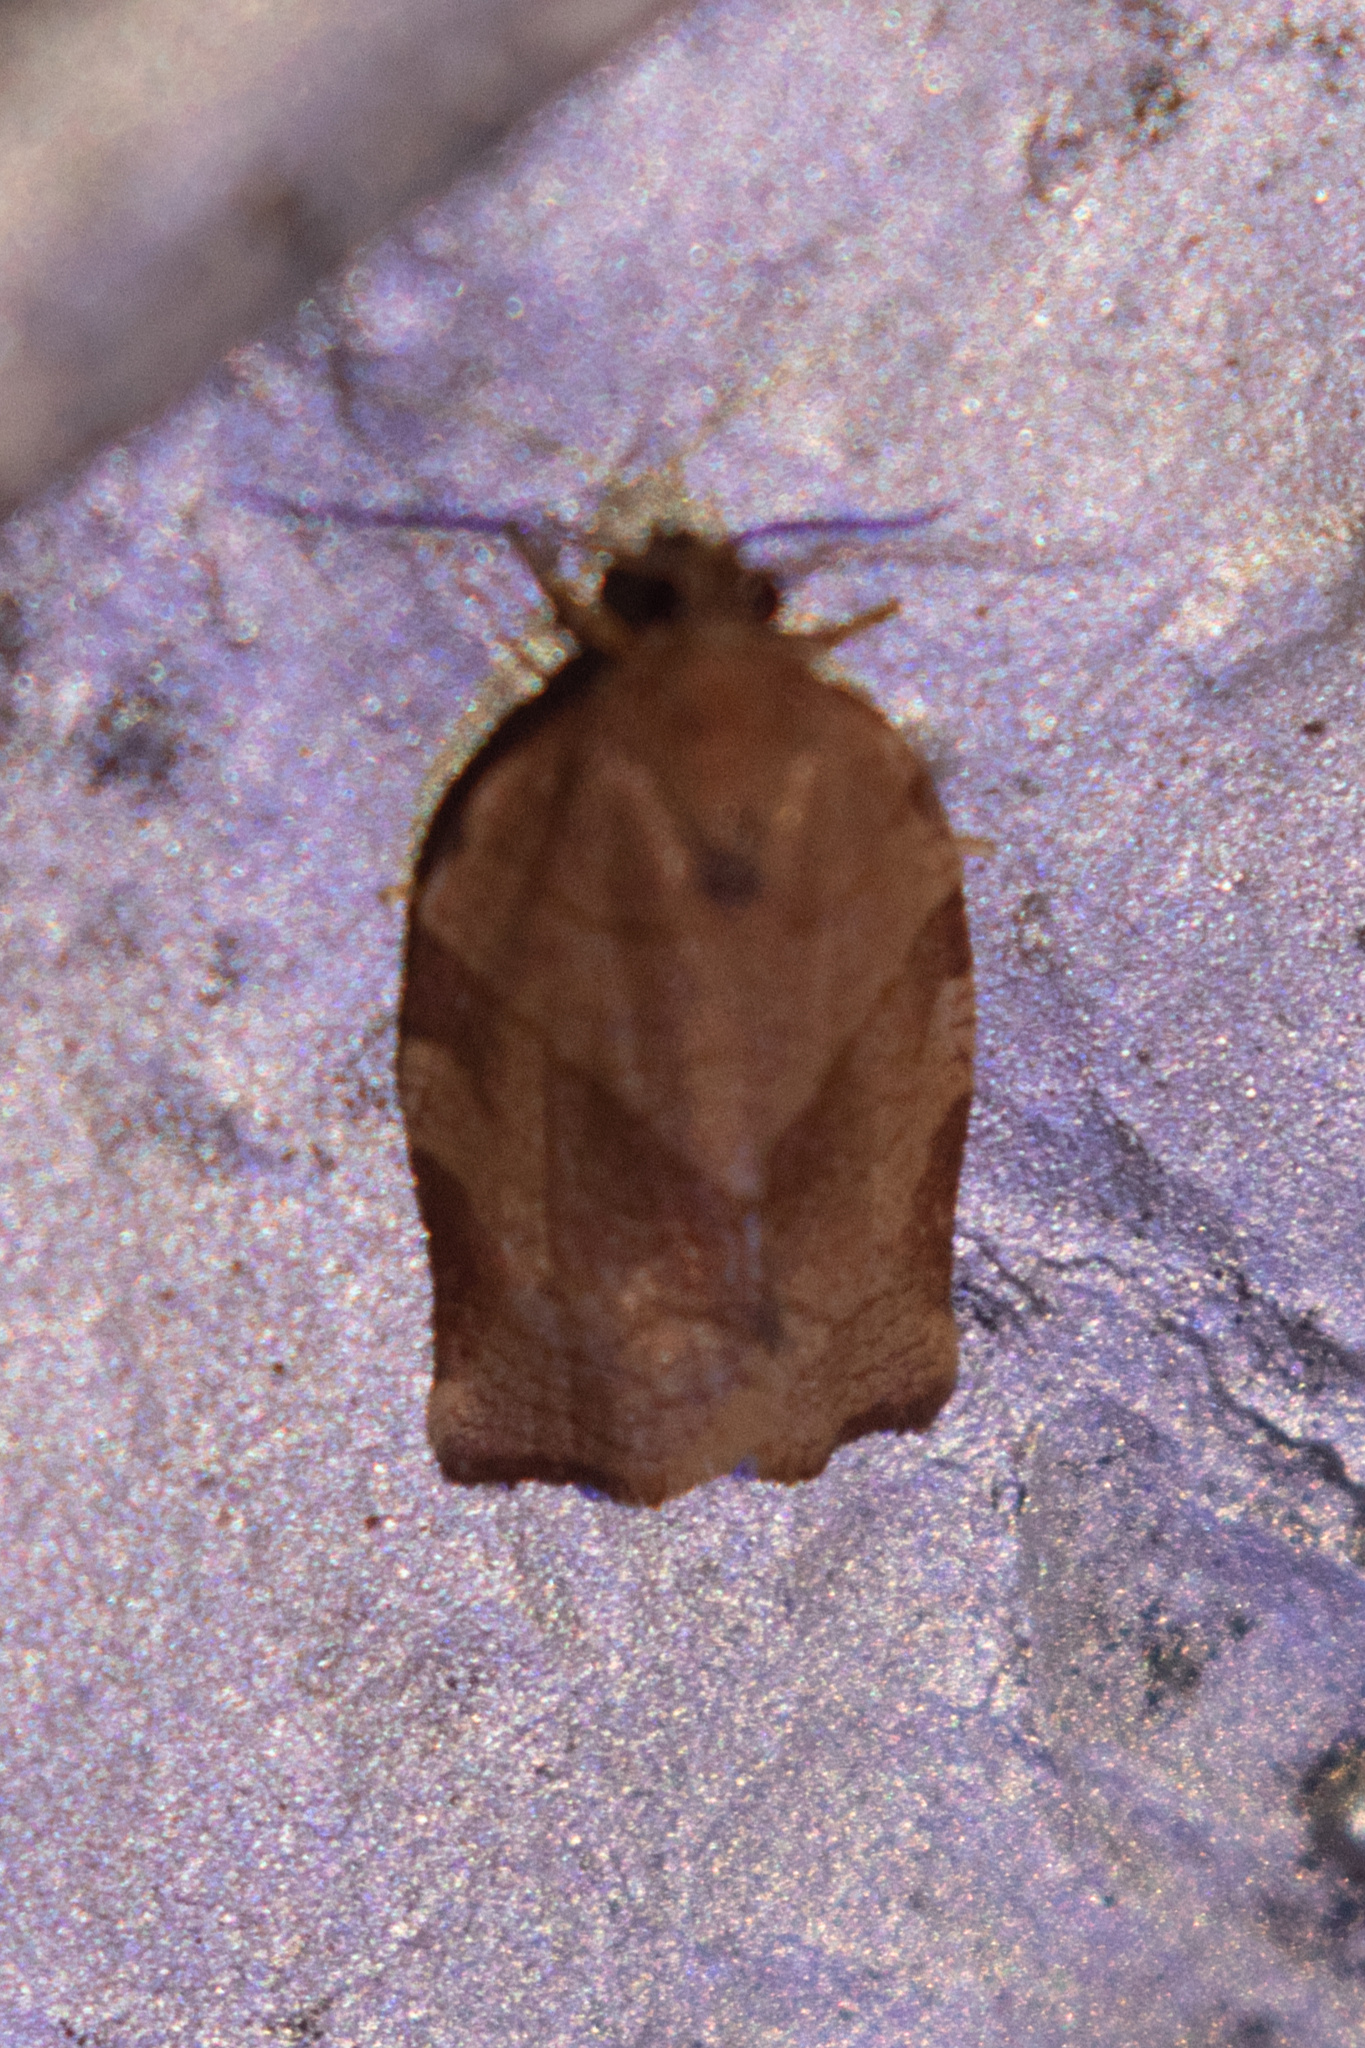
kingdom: Animalia
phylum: Arthropoda
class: Insecta
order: Lepidoptera
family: Tortricidae
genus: Choristoneura
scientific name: Choristoneura rosaceana
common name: Oblique-banded leafroller moth
